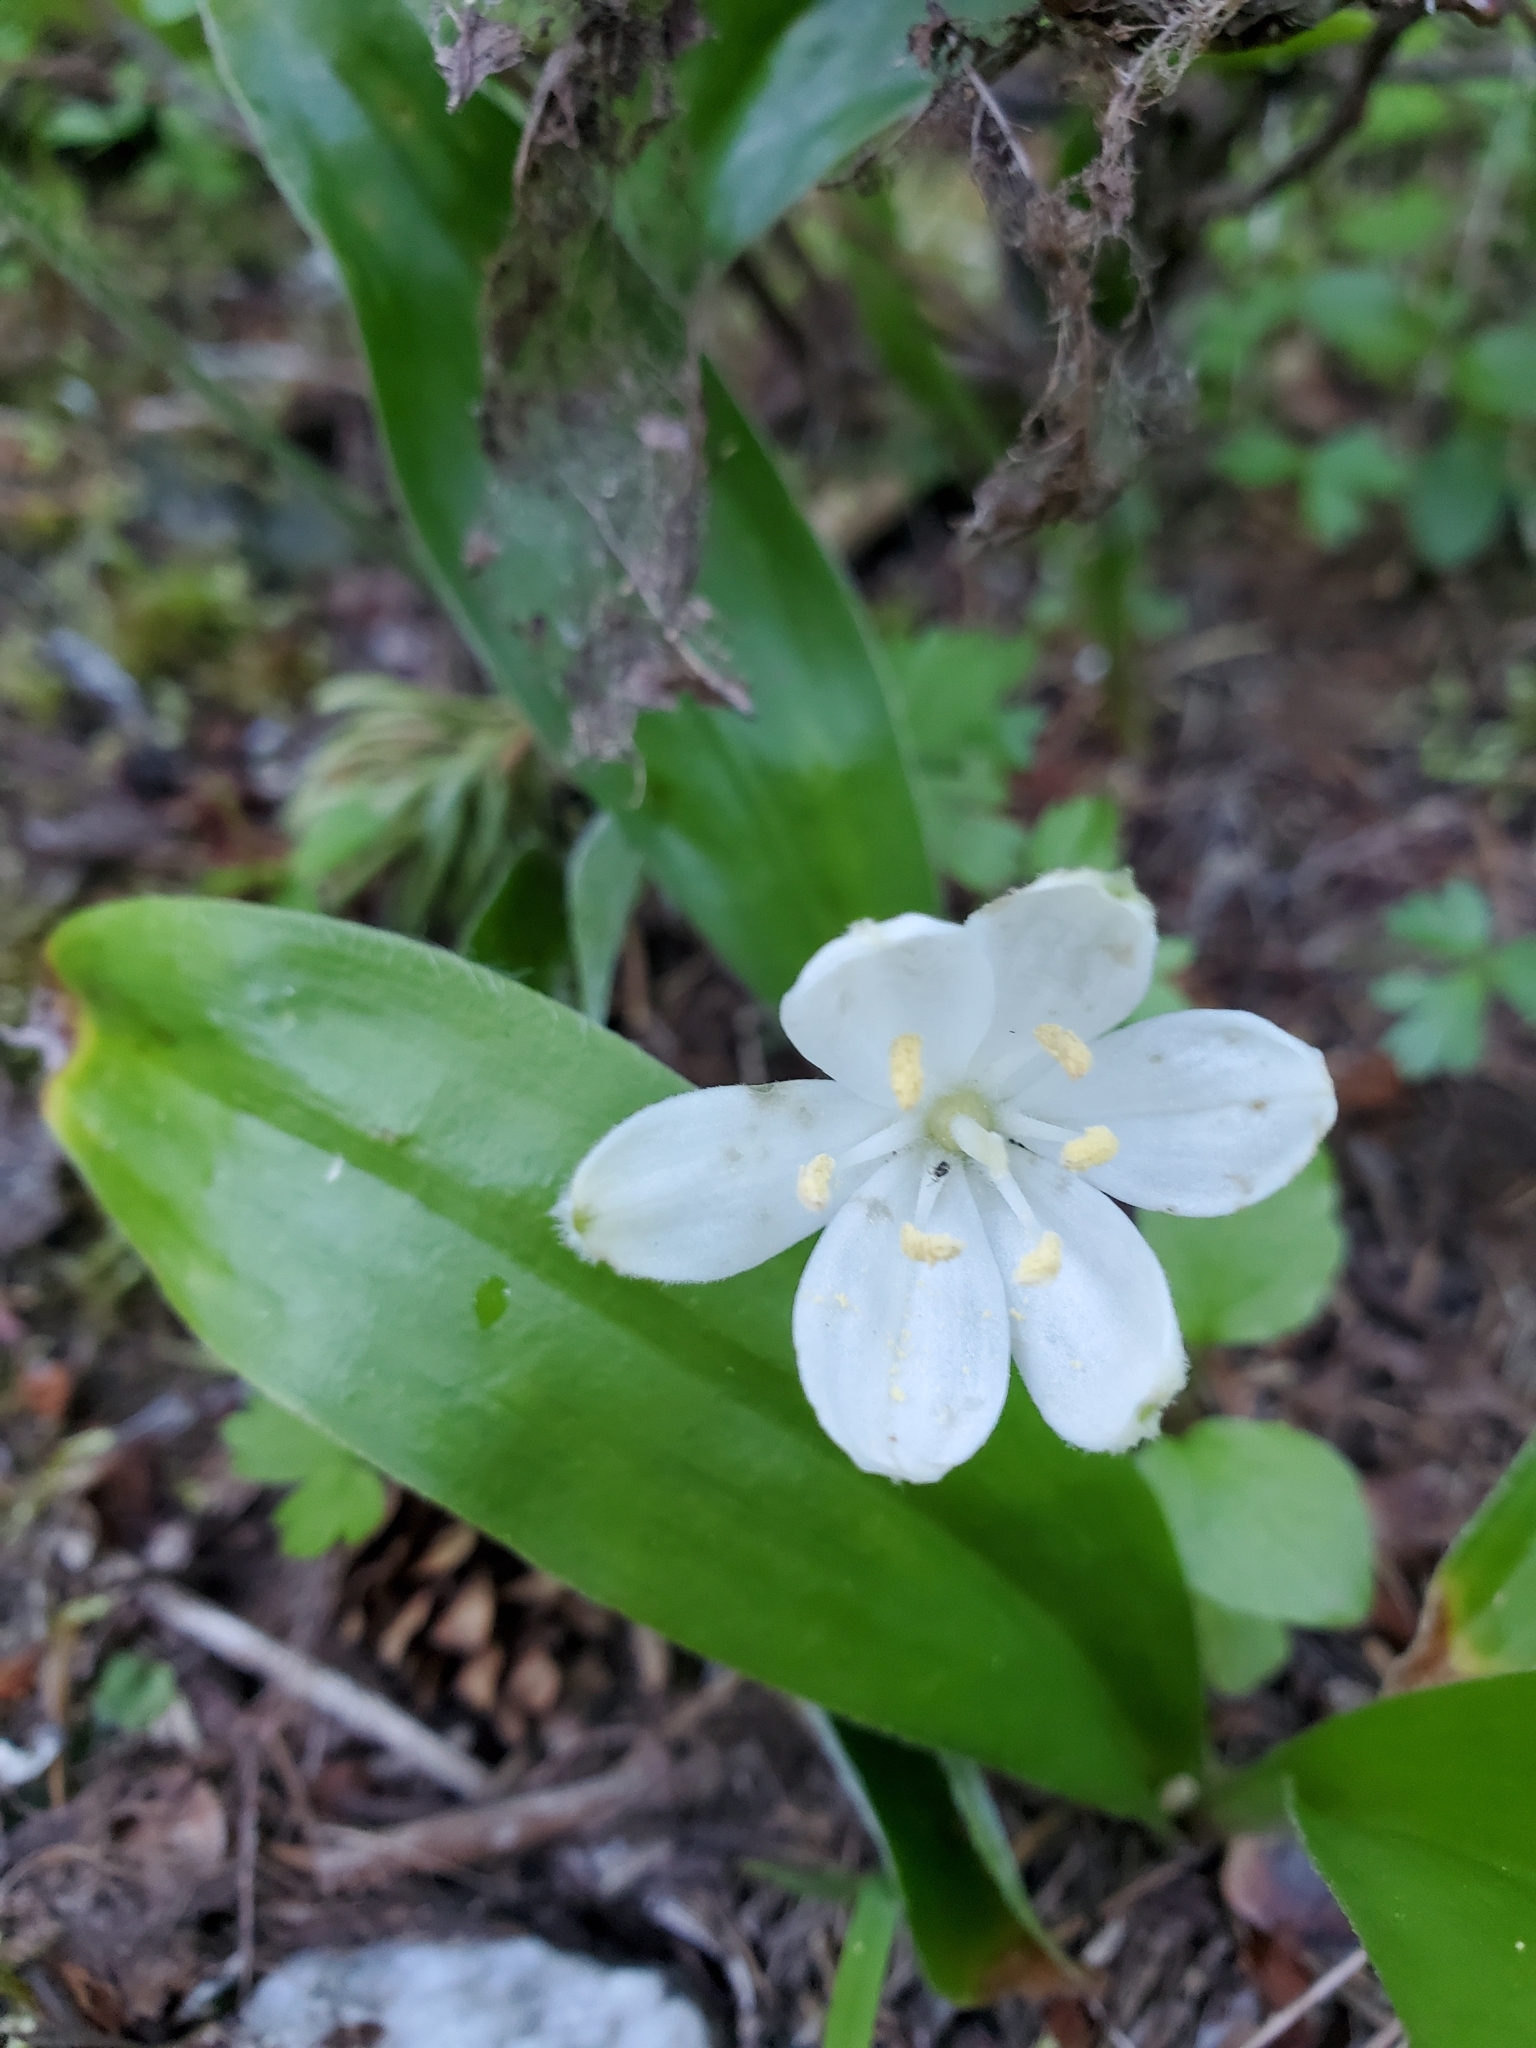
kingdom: Plantae
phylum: Tracheophyta
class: Liliopsida
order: Liliales
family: Liliaceae
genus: Clintonia
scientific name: Clintonia uniflora
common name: Queen's cup
